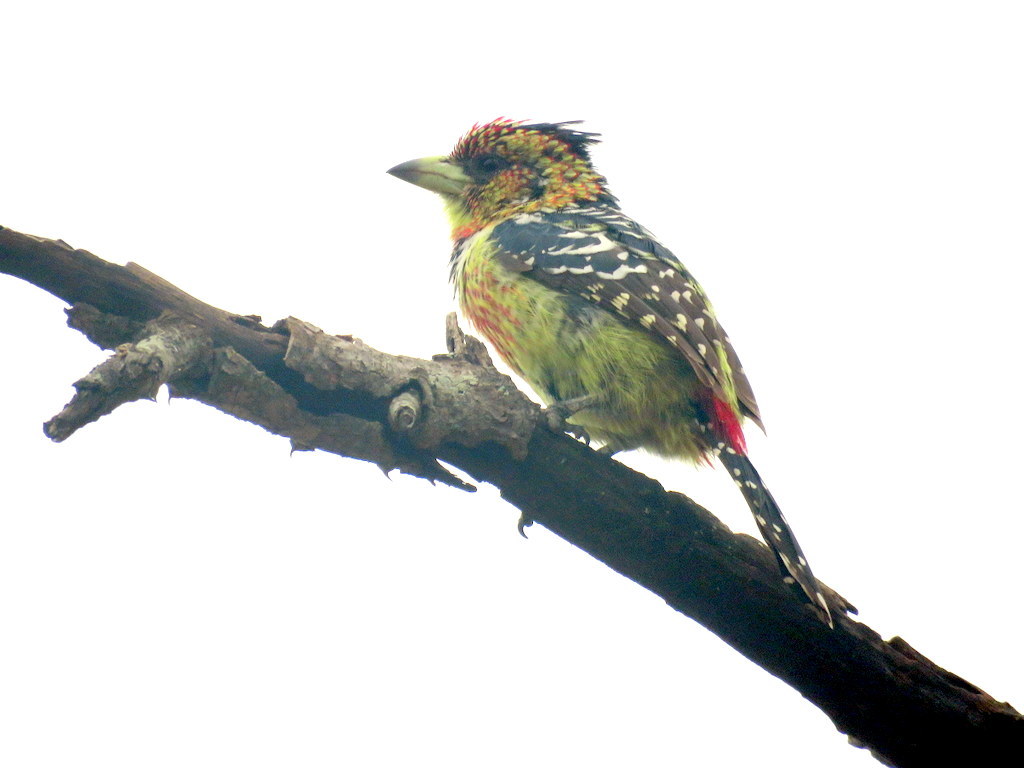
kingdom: Animalia
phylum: Chordata
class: Aves
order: Piciformes
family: Lybiidae
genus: Trachyphonus
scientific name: Trachyphonus vaillantii
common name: Crested barbet
